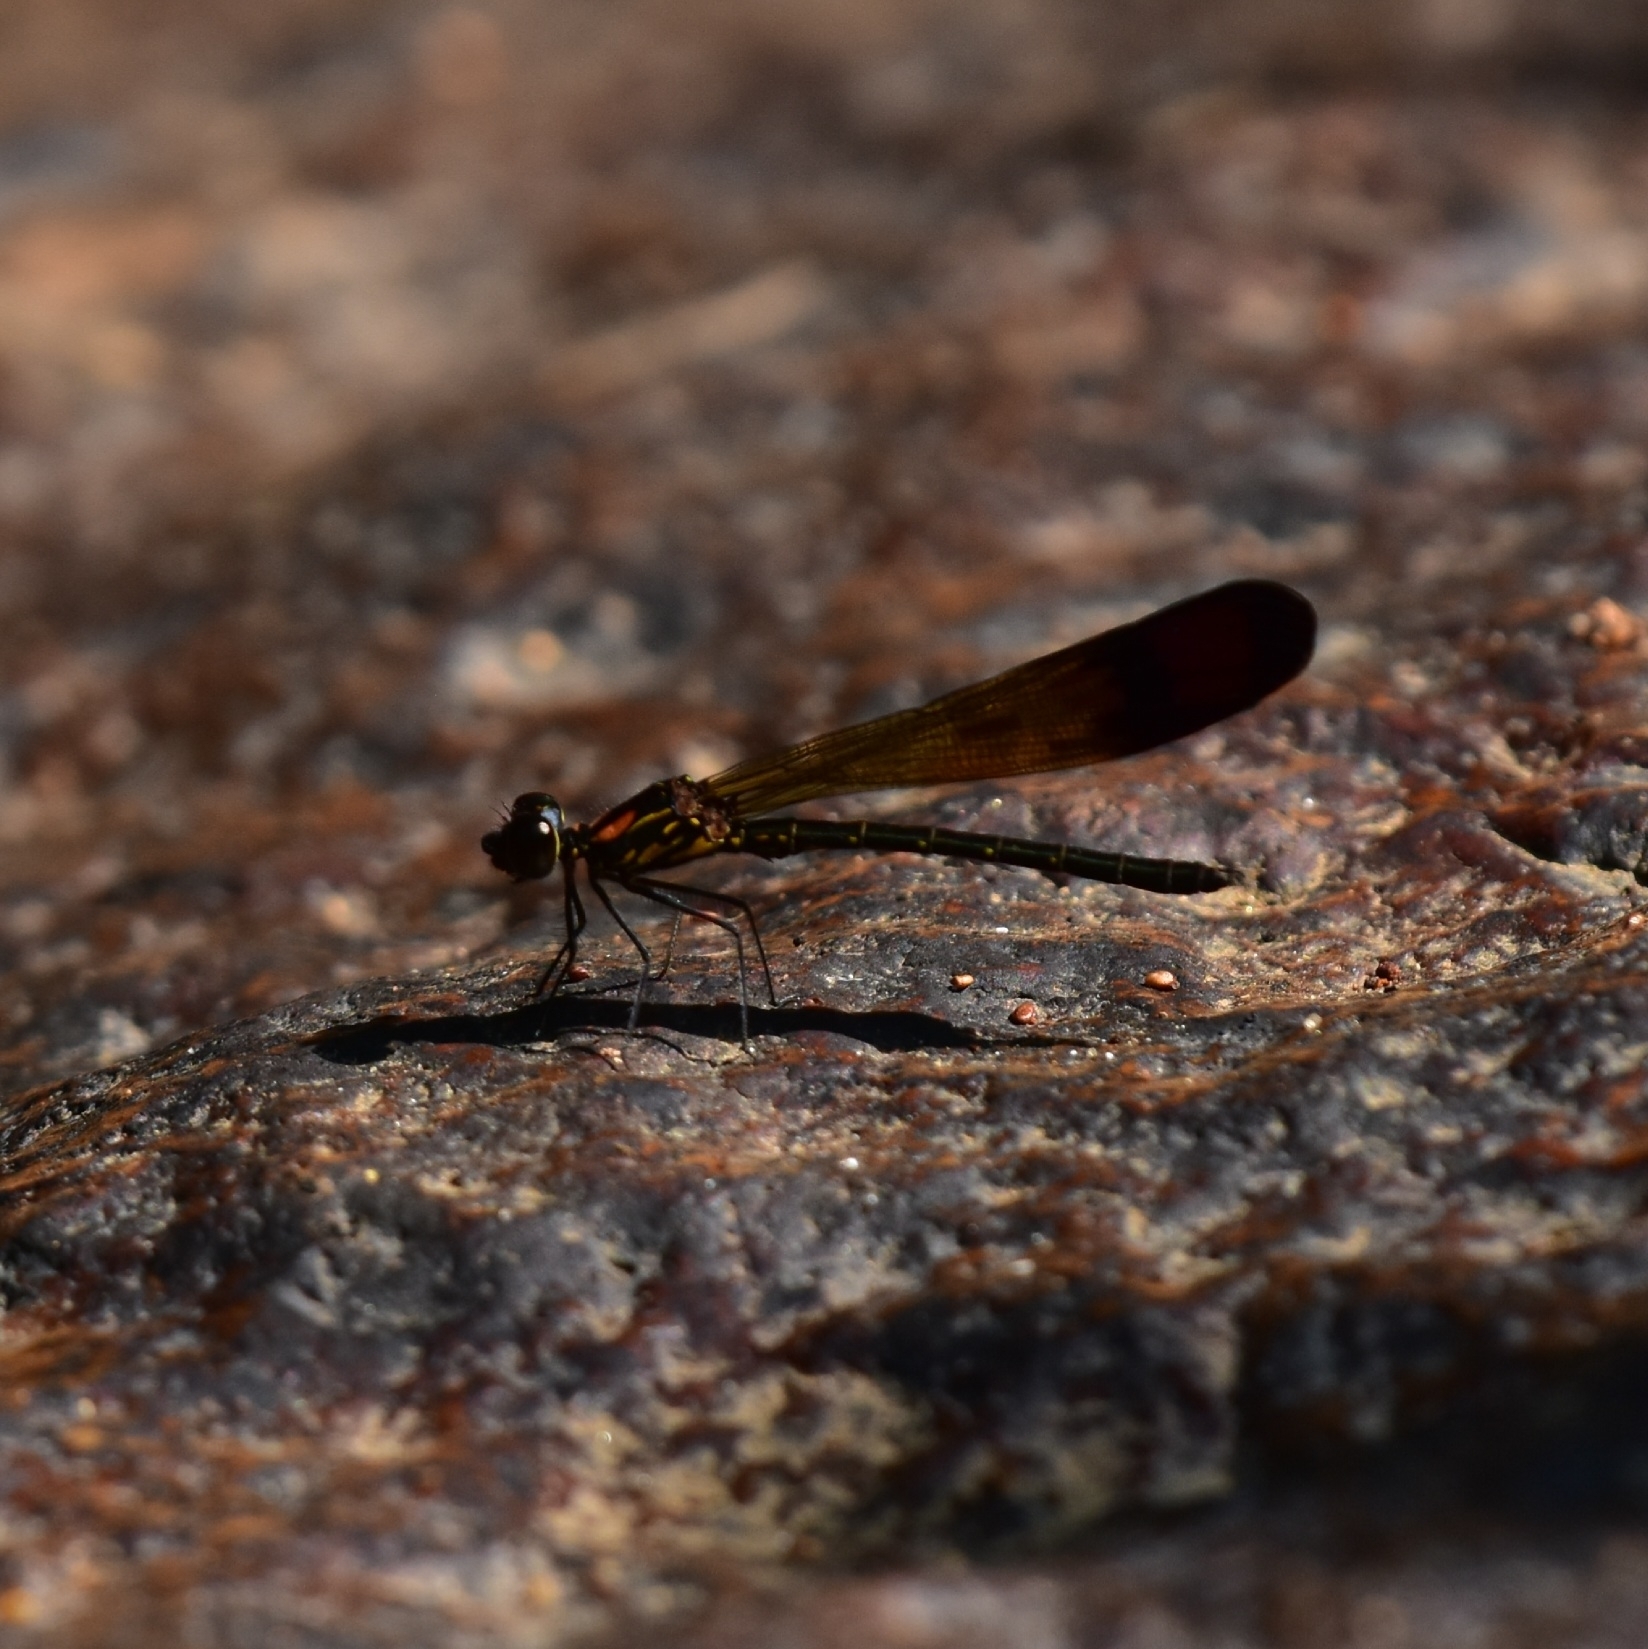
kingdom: Animalia
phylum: Arthropoda
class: Insecta
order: Odonata
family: Chlorocyphidae
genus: Heliocypha
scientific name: Heliocypha bisignata
